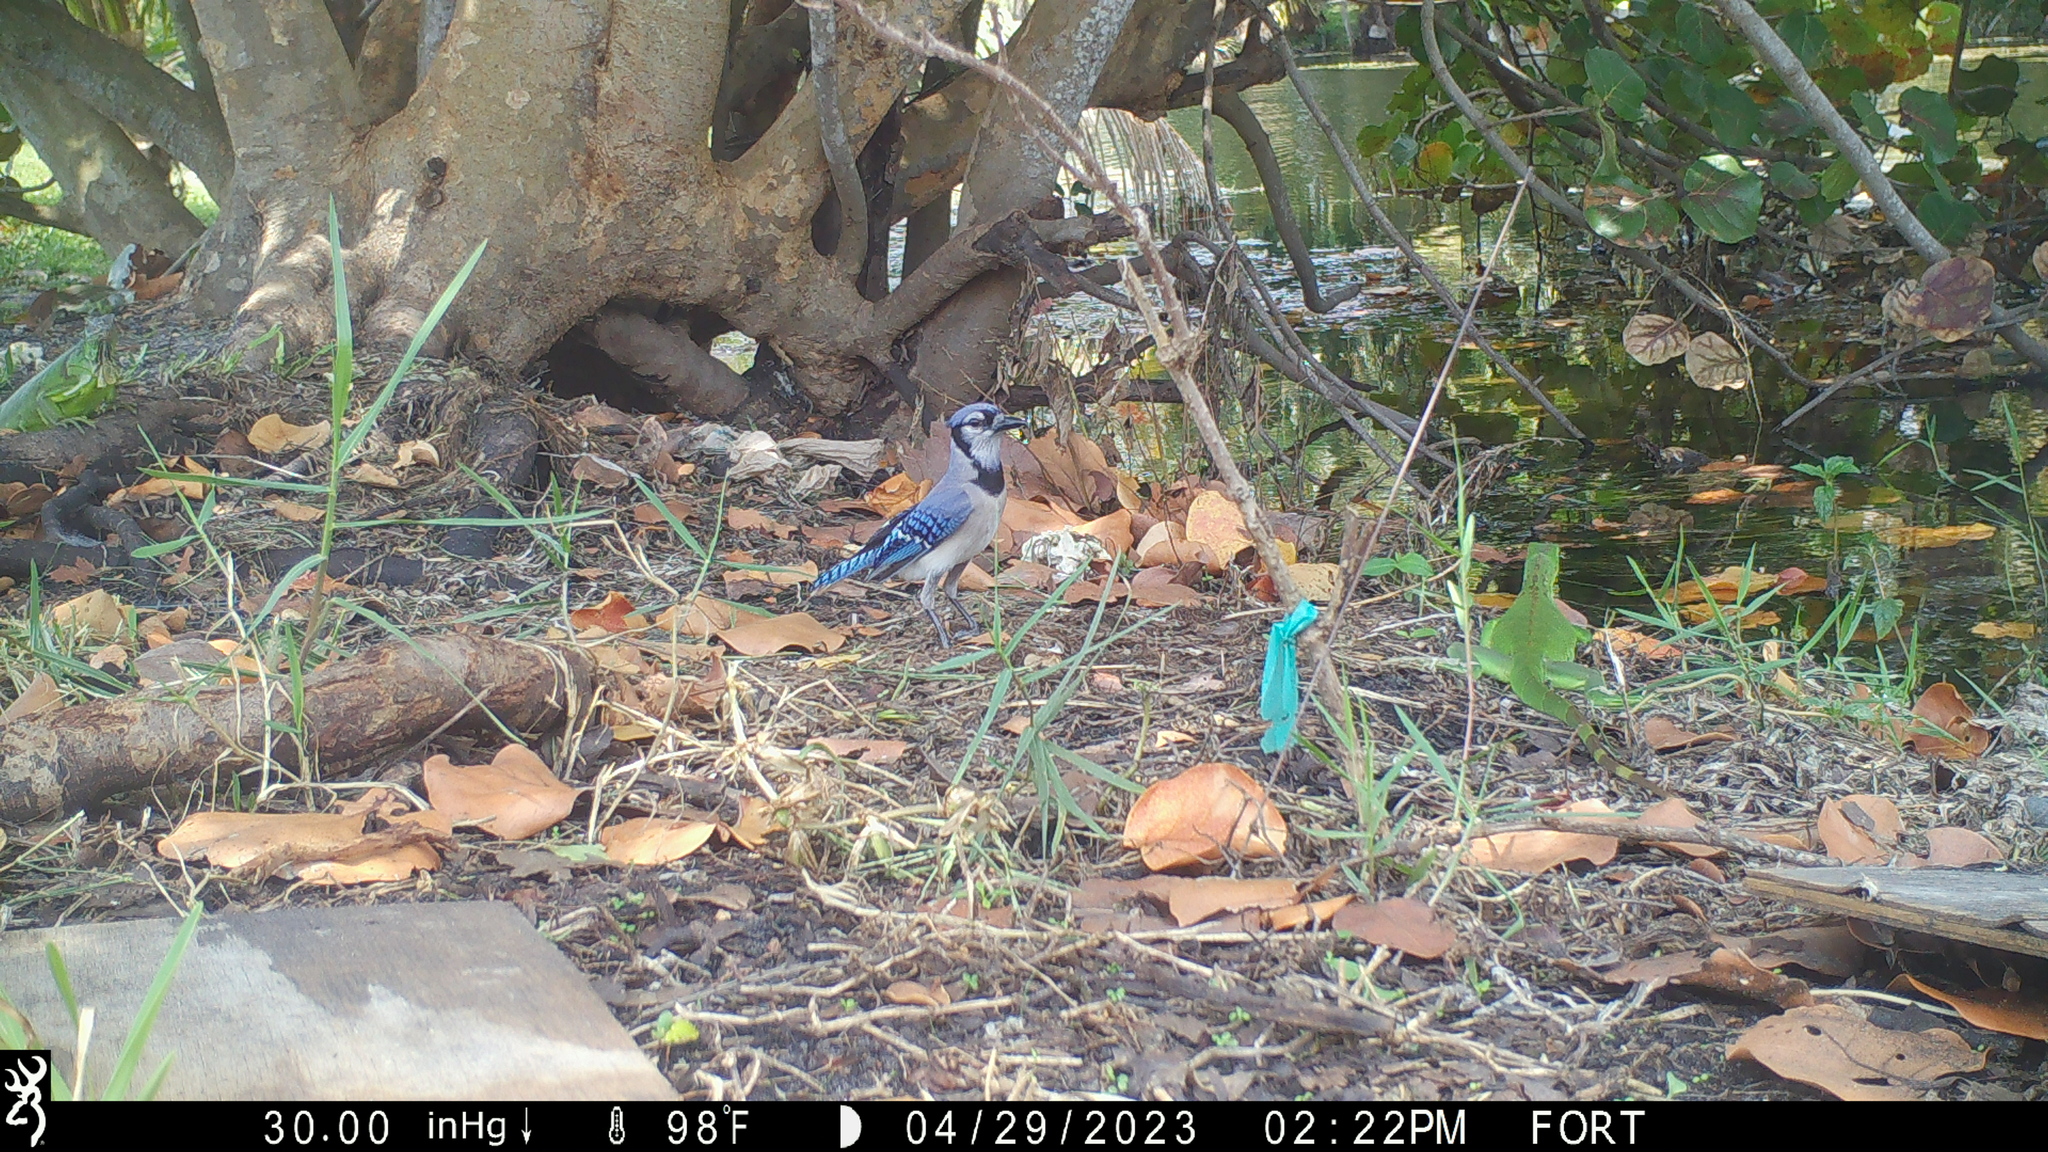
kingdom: Animalia
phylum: Chordata
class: Aves
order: Passeriformes
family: Corvidae
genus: Cyanocitta
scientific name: Cyanocitta cristata
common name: Blue jay
